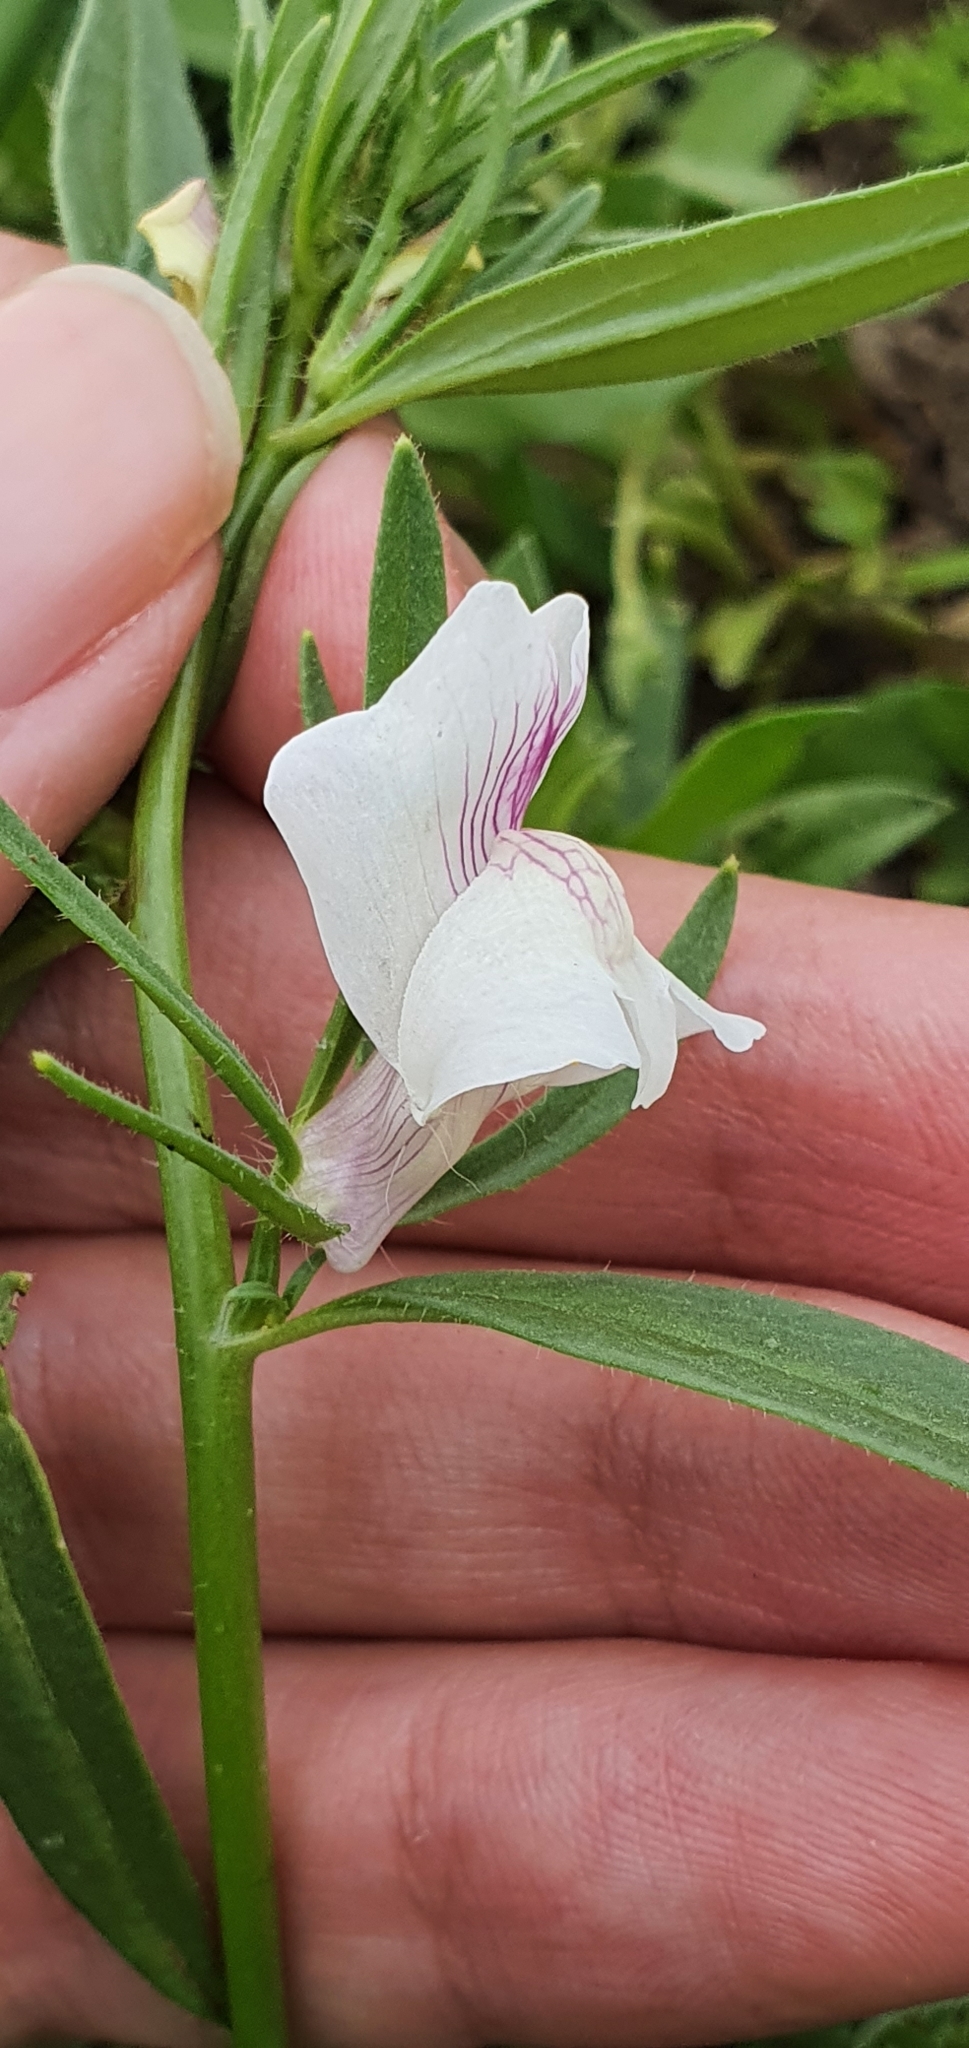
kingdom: Plantae
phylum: Tracheophyta
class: Magnoliopsida
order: Lamiales
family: Plantaginaceae
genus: Misopates
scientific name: Misopates calycinum
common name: Pale weasel's-snout
